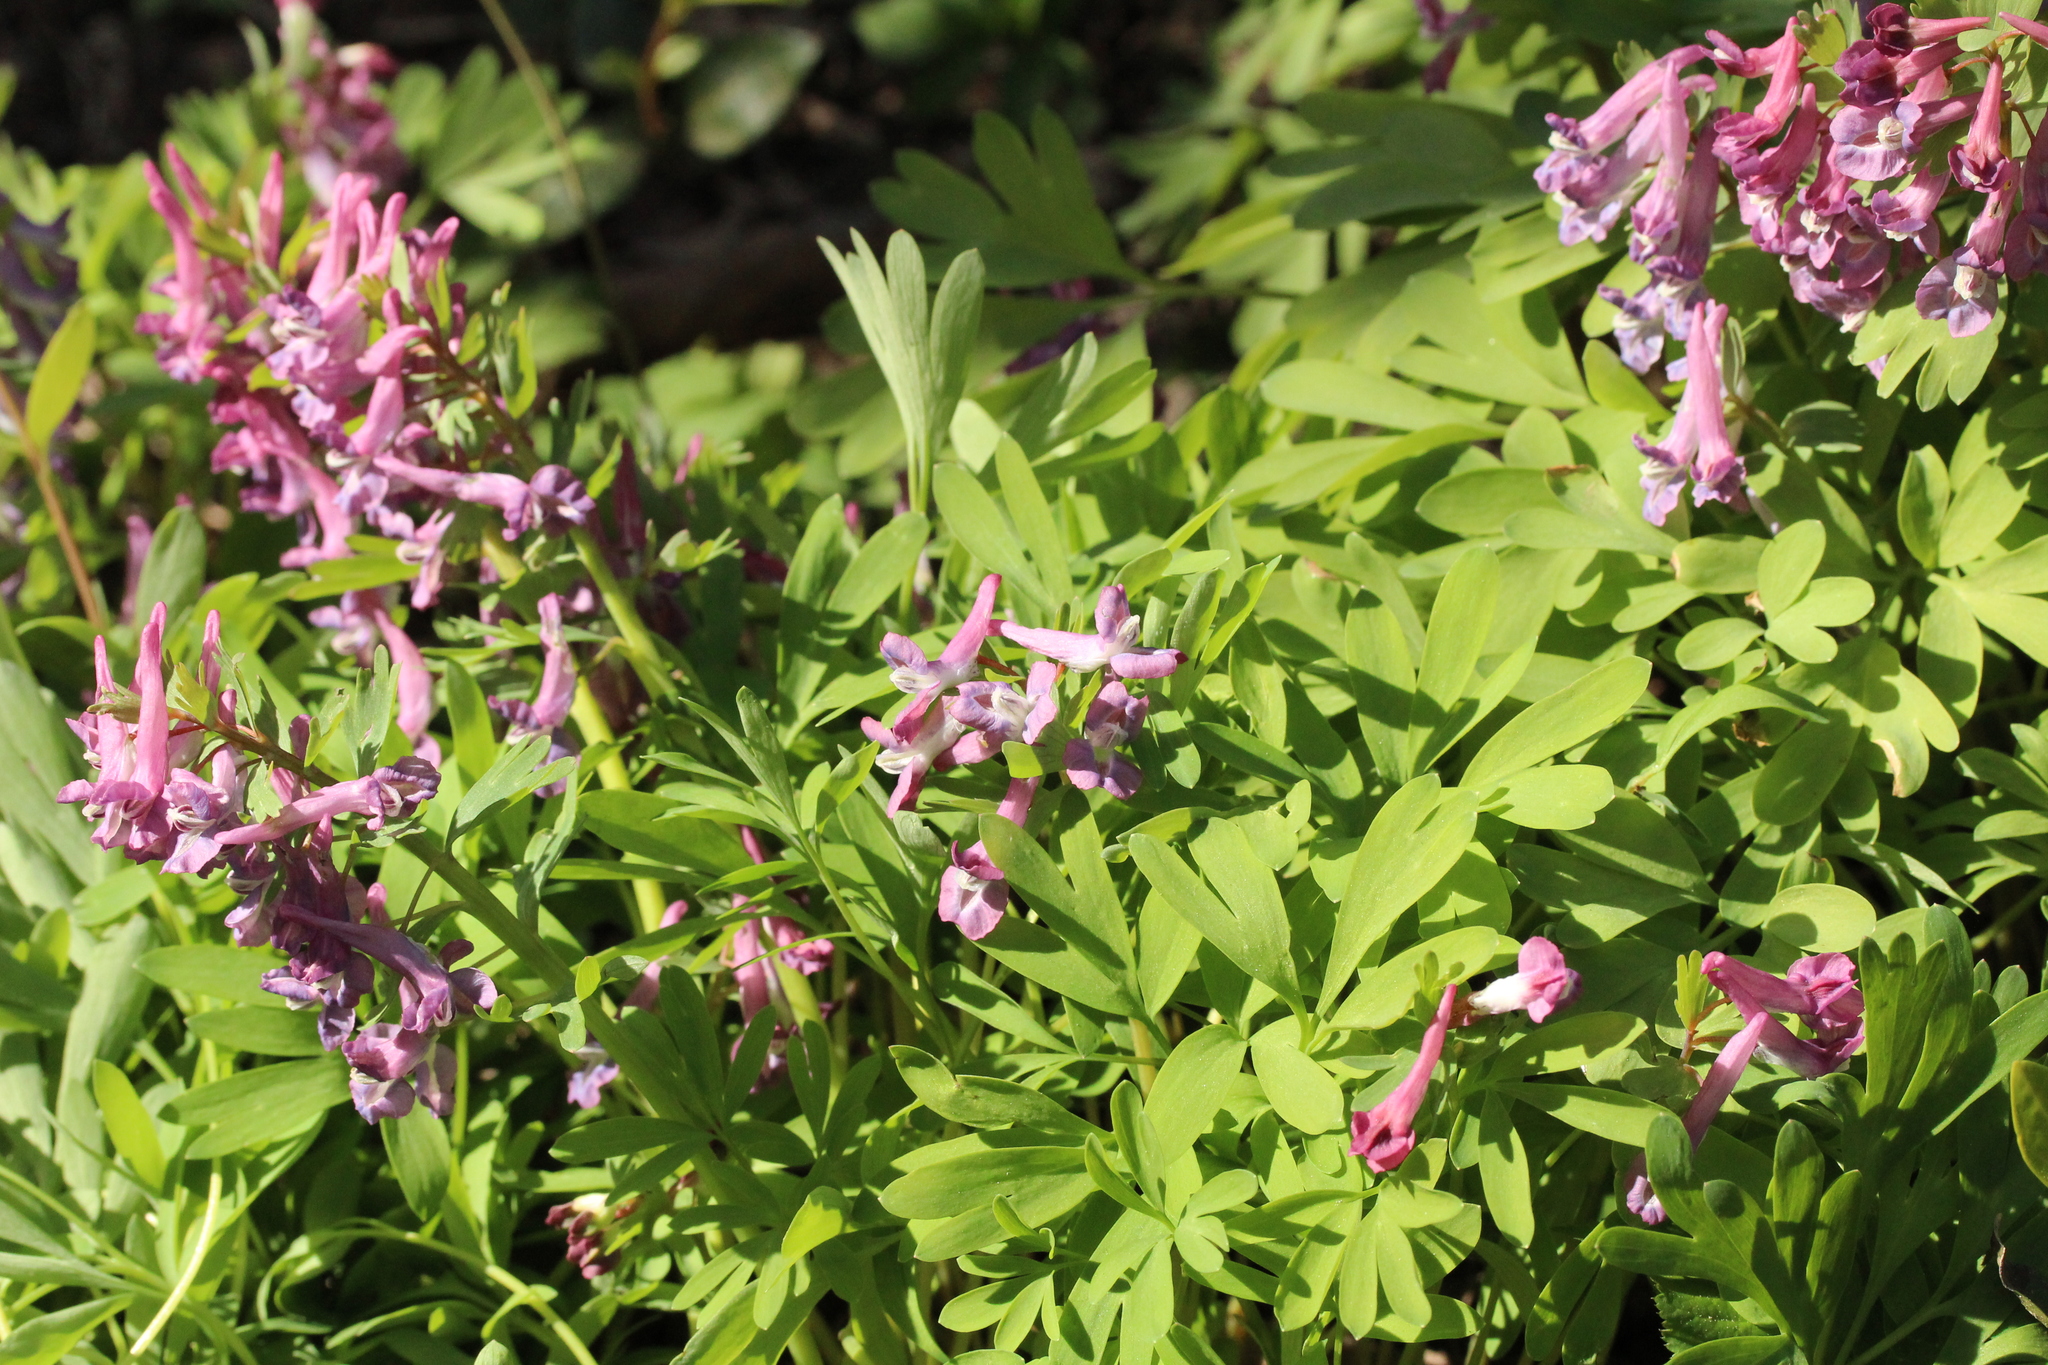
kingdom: Plantae
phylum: Tracheophyta
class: Magnoliopsida
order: Ranunculales
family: Papaveraceae
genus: Corydalis
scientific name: Corydalis solida
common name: Bird-in-a-bush
